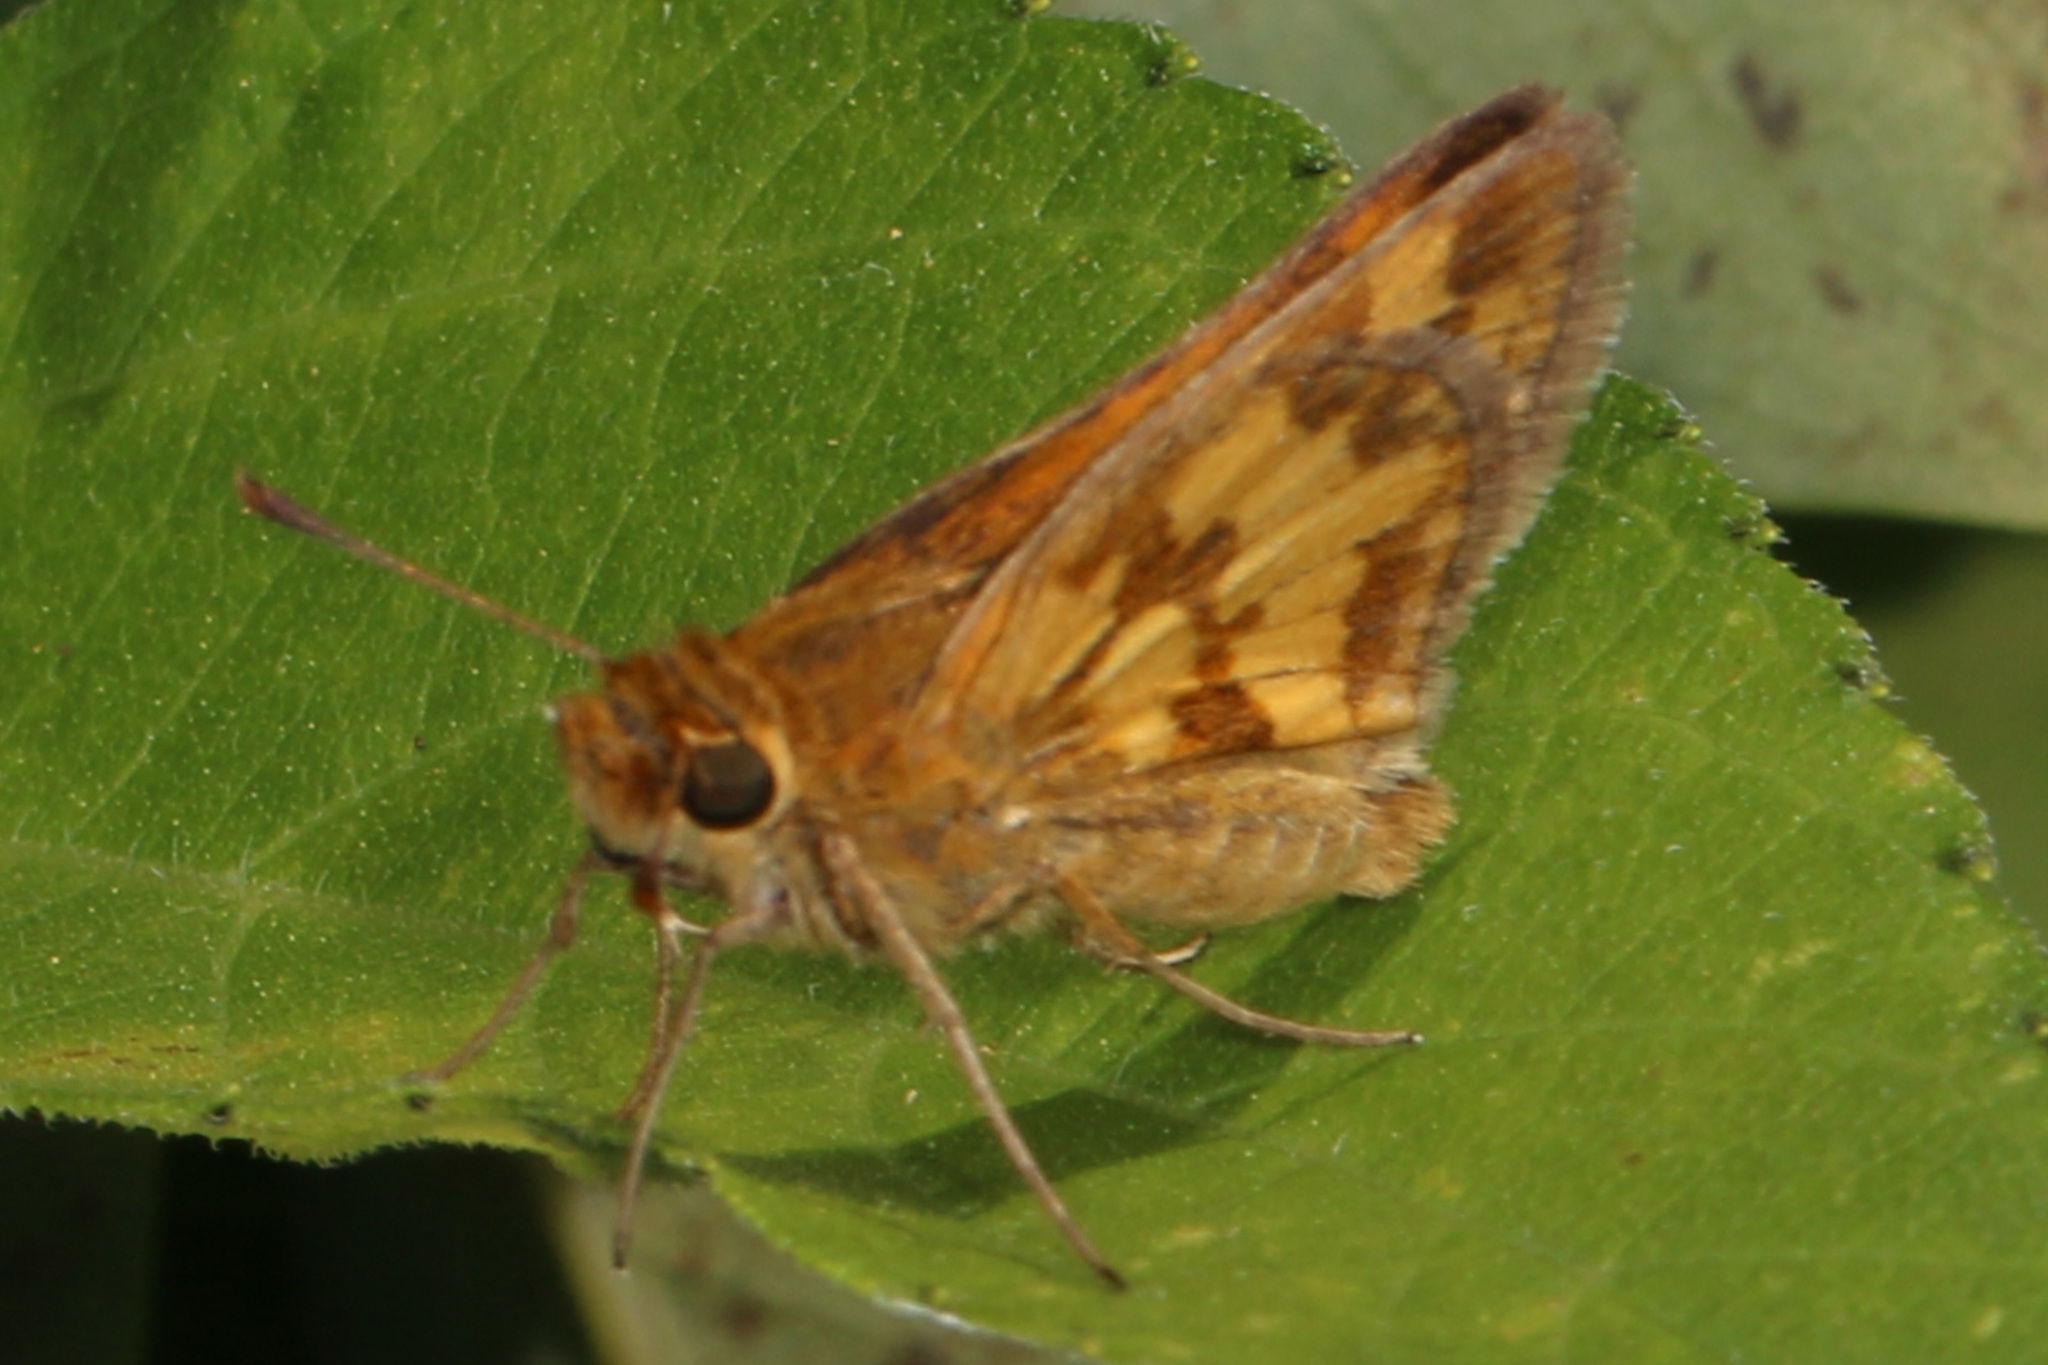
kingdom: Animalia
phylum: Arthropoda
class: Insecta
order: Lepidoptera
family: Hesperiidae
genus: Polites
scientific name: Polites coras
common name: Peck's skipper
